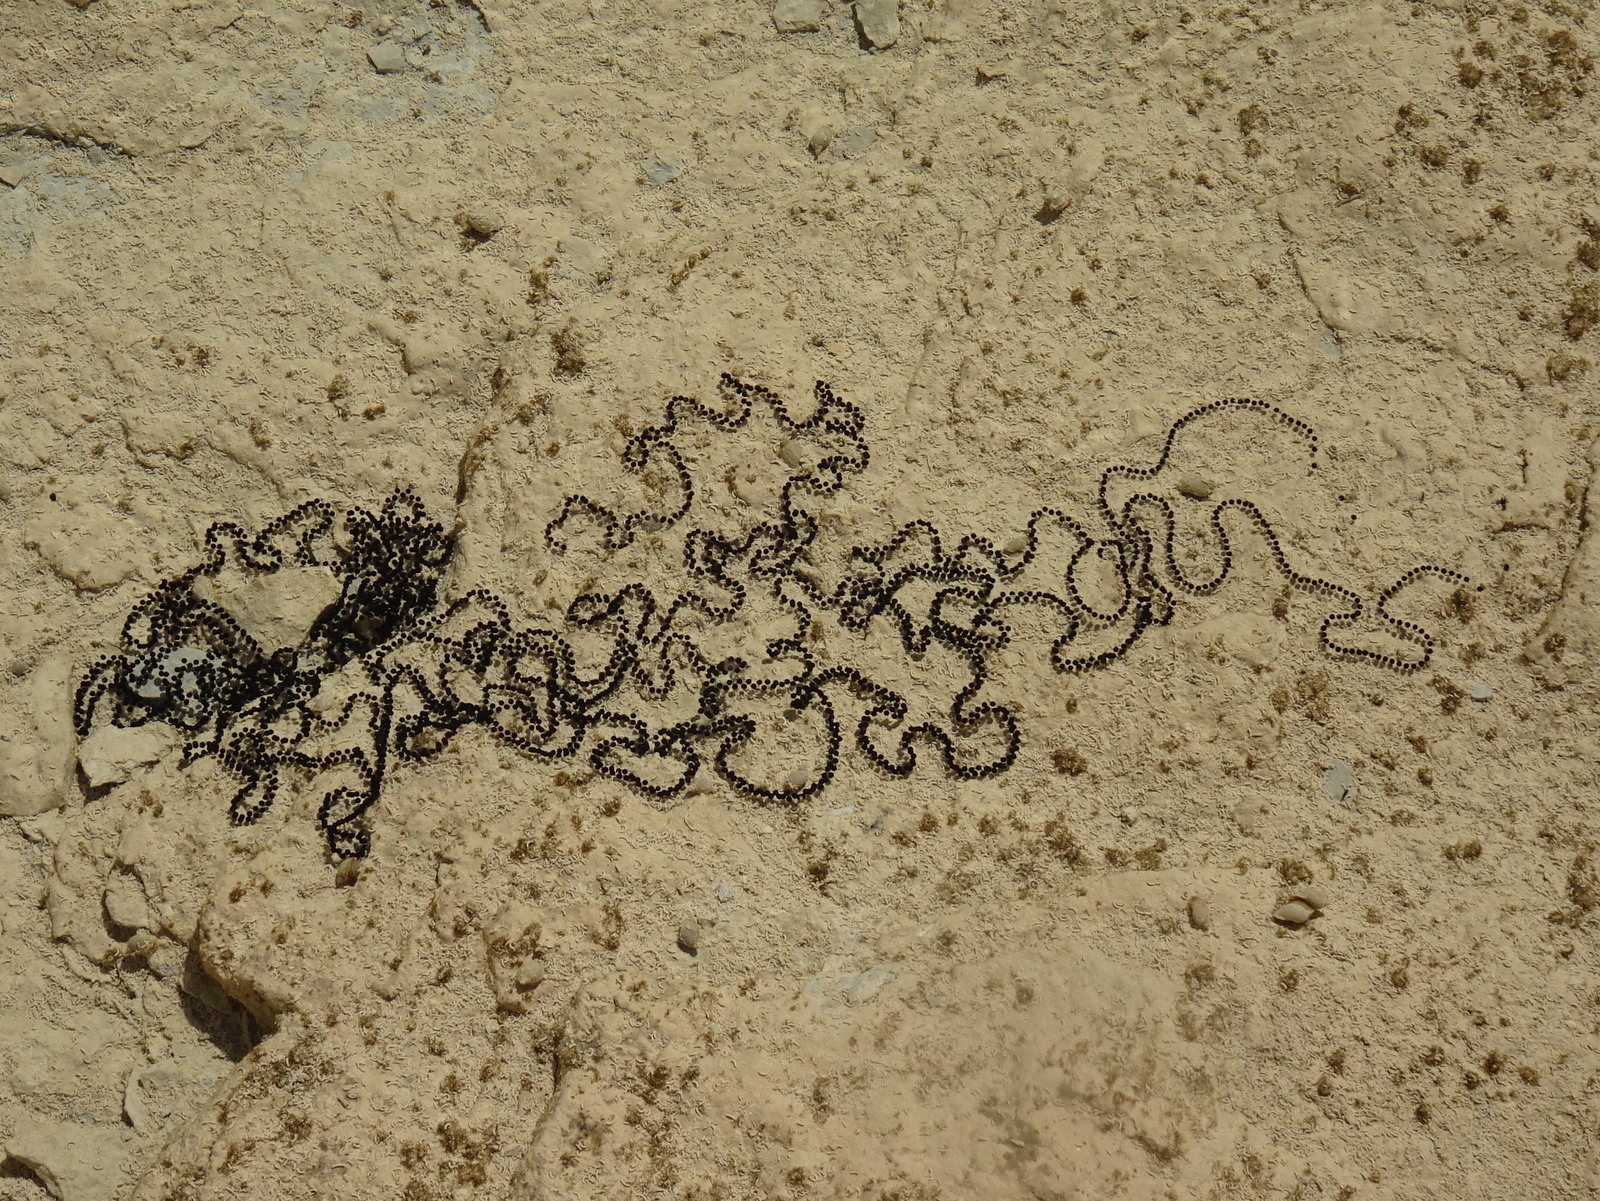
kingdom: Animalia
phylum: Chordata
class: Amphibia
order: Anura
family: Bufonidae
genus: Epidalea
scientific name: Epidalea calamita
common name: Natterjack toad
